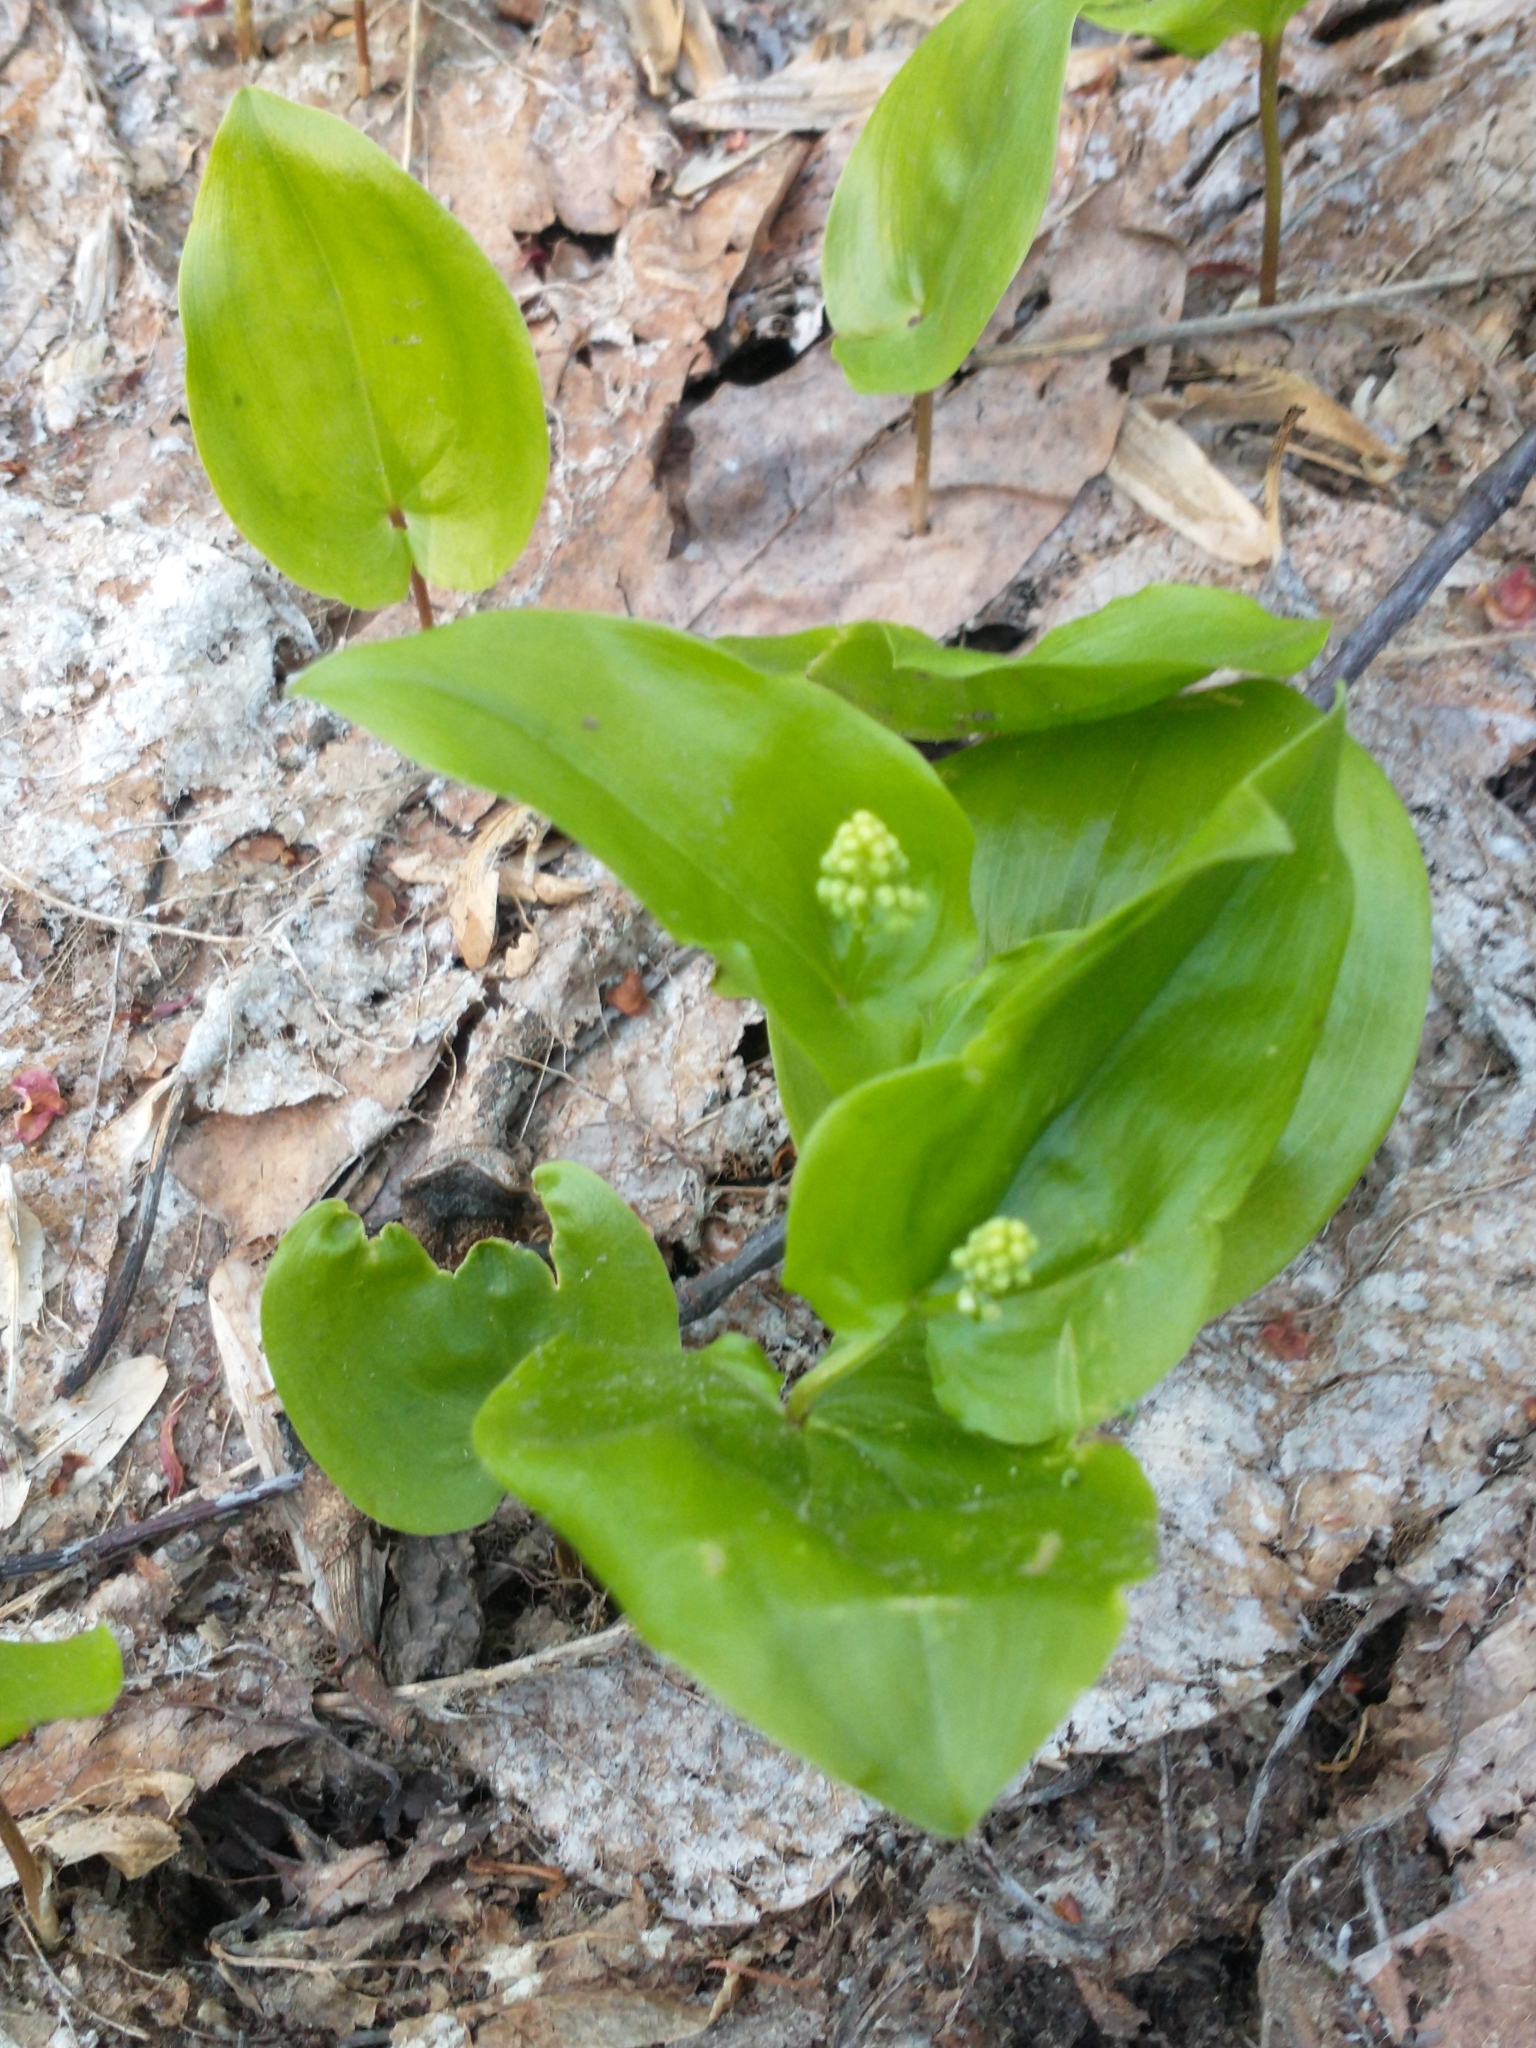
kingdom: Plantae
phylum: Tracheophyta
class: Liliopsida
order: Asparagales
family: Asparagaceae
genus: Maianthemum
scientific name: Maianthemum canadense
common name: False lily-of-the-valley
